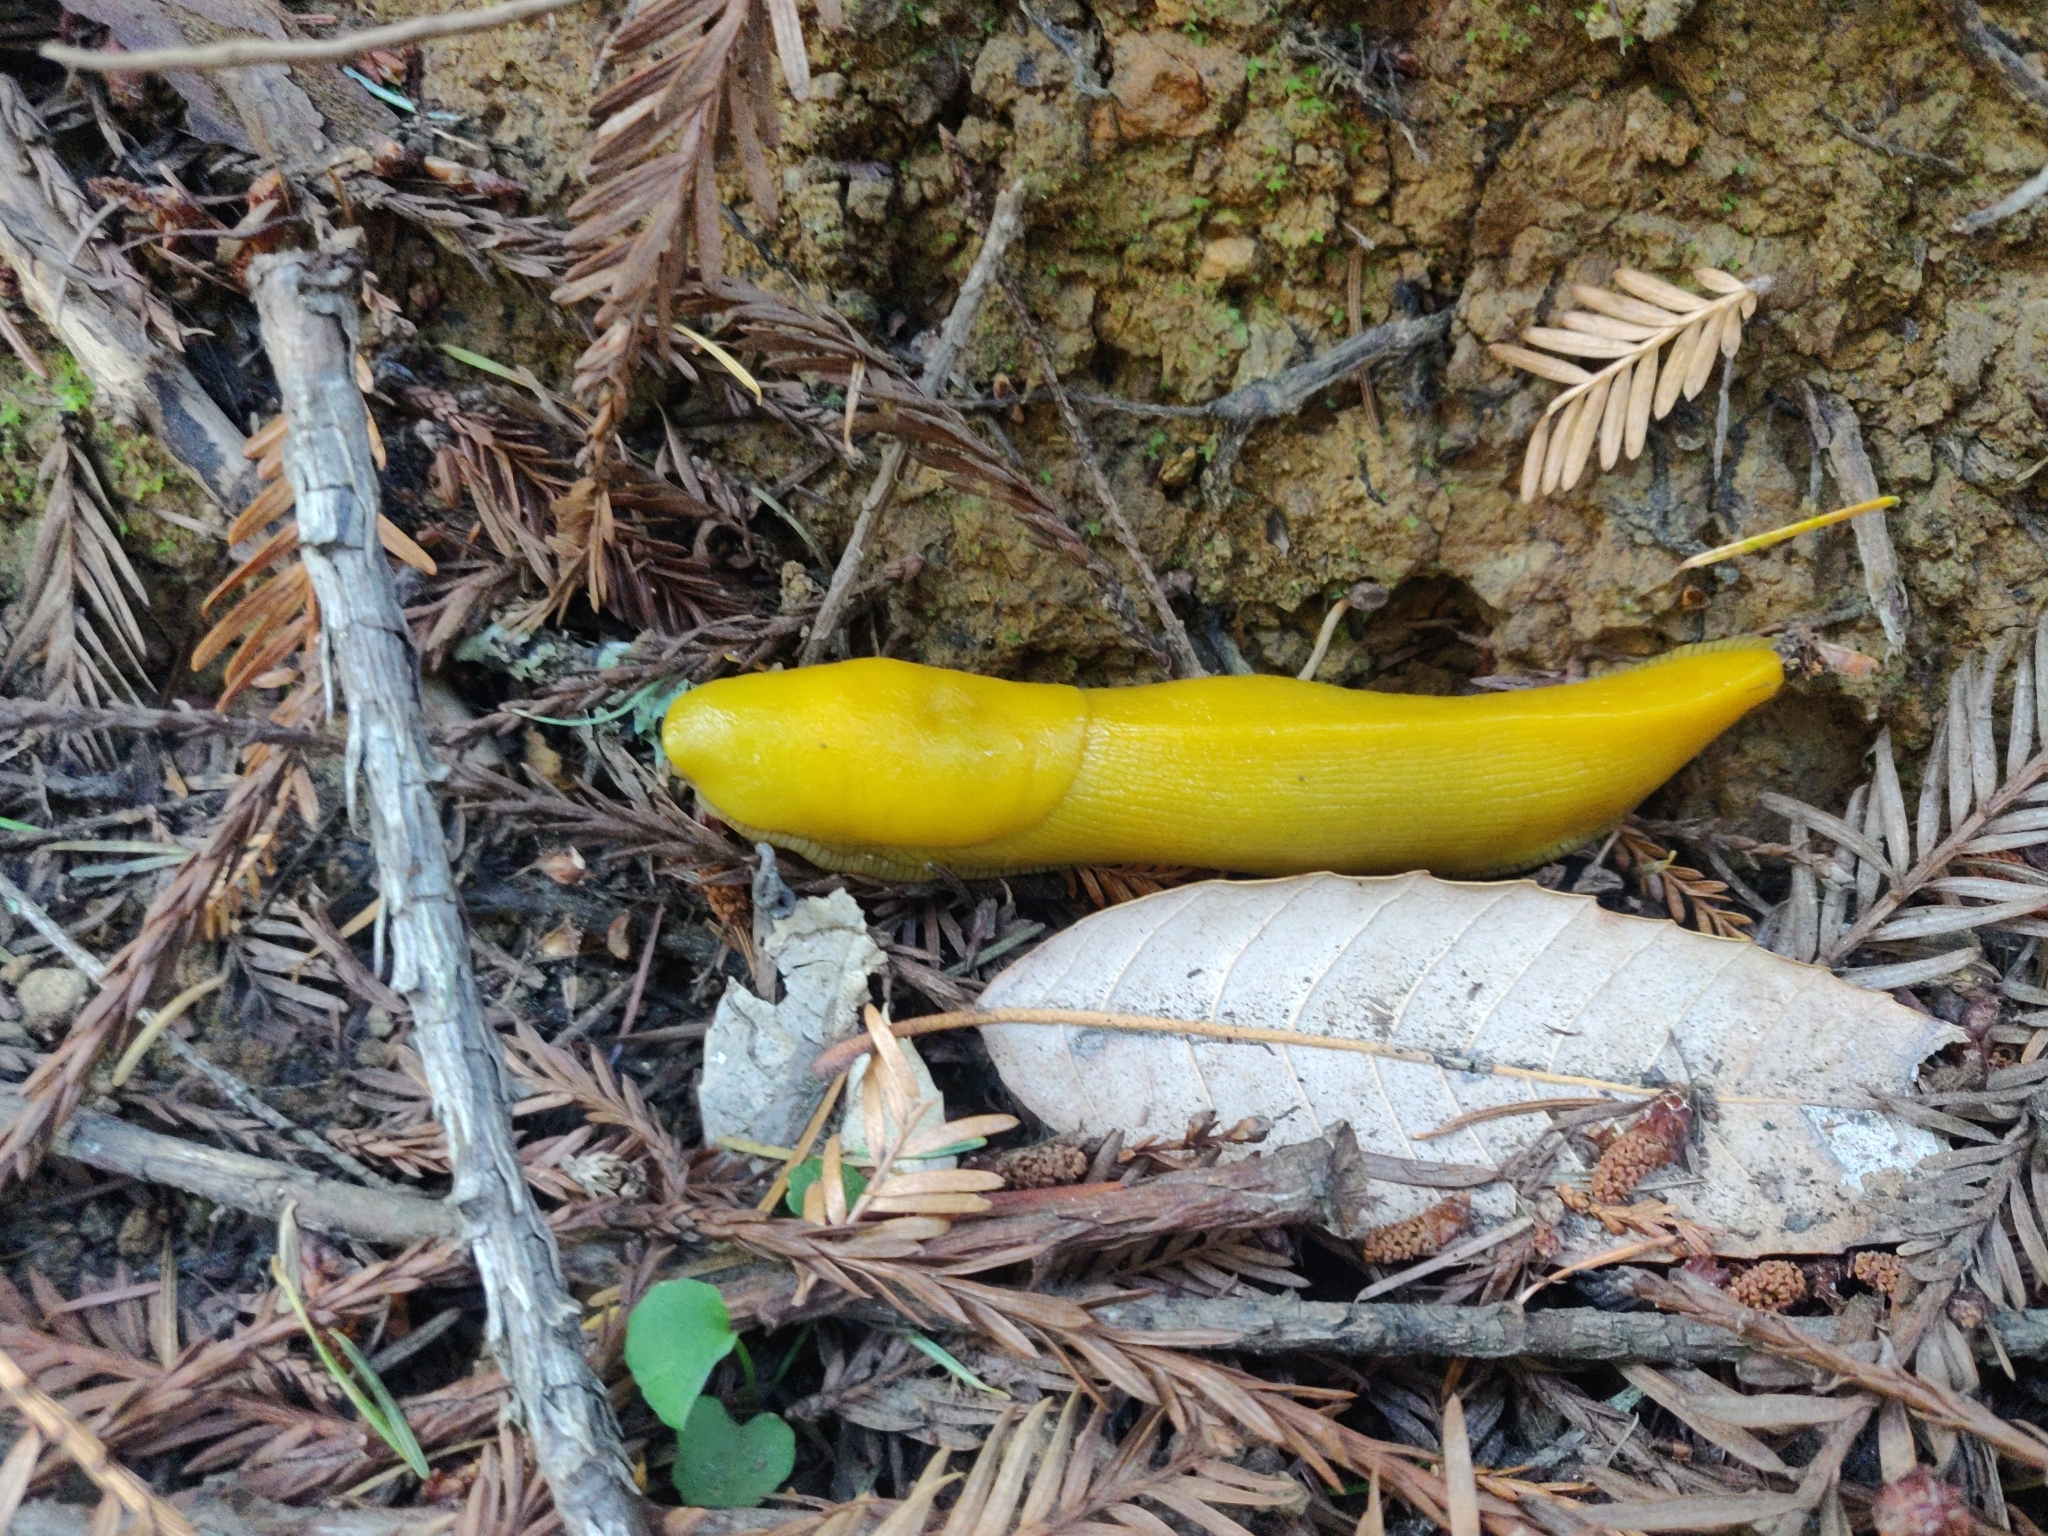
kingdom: Animalia
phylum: Mollusca
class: Gastropoda
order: Stylommatophora
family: Ariolimacidae
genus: Ariolimax
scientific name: Ariolimax californicus
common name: California banana slug
